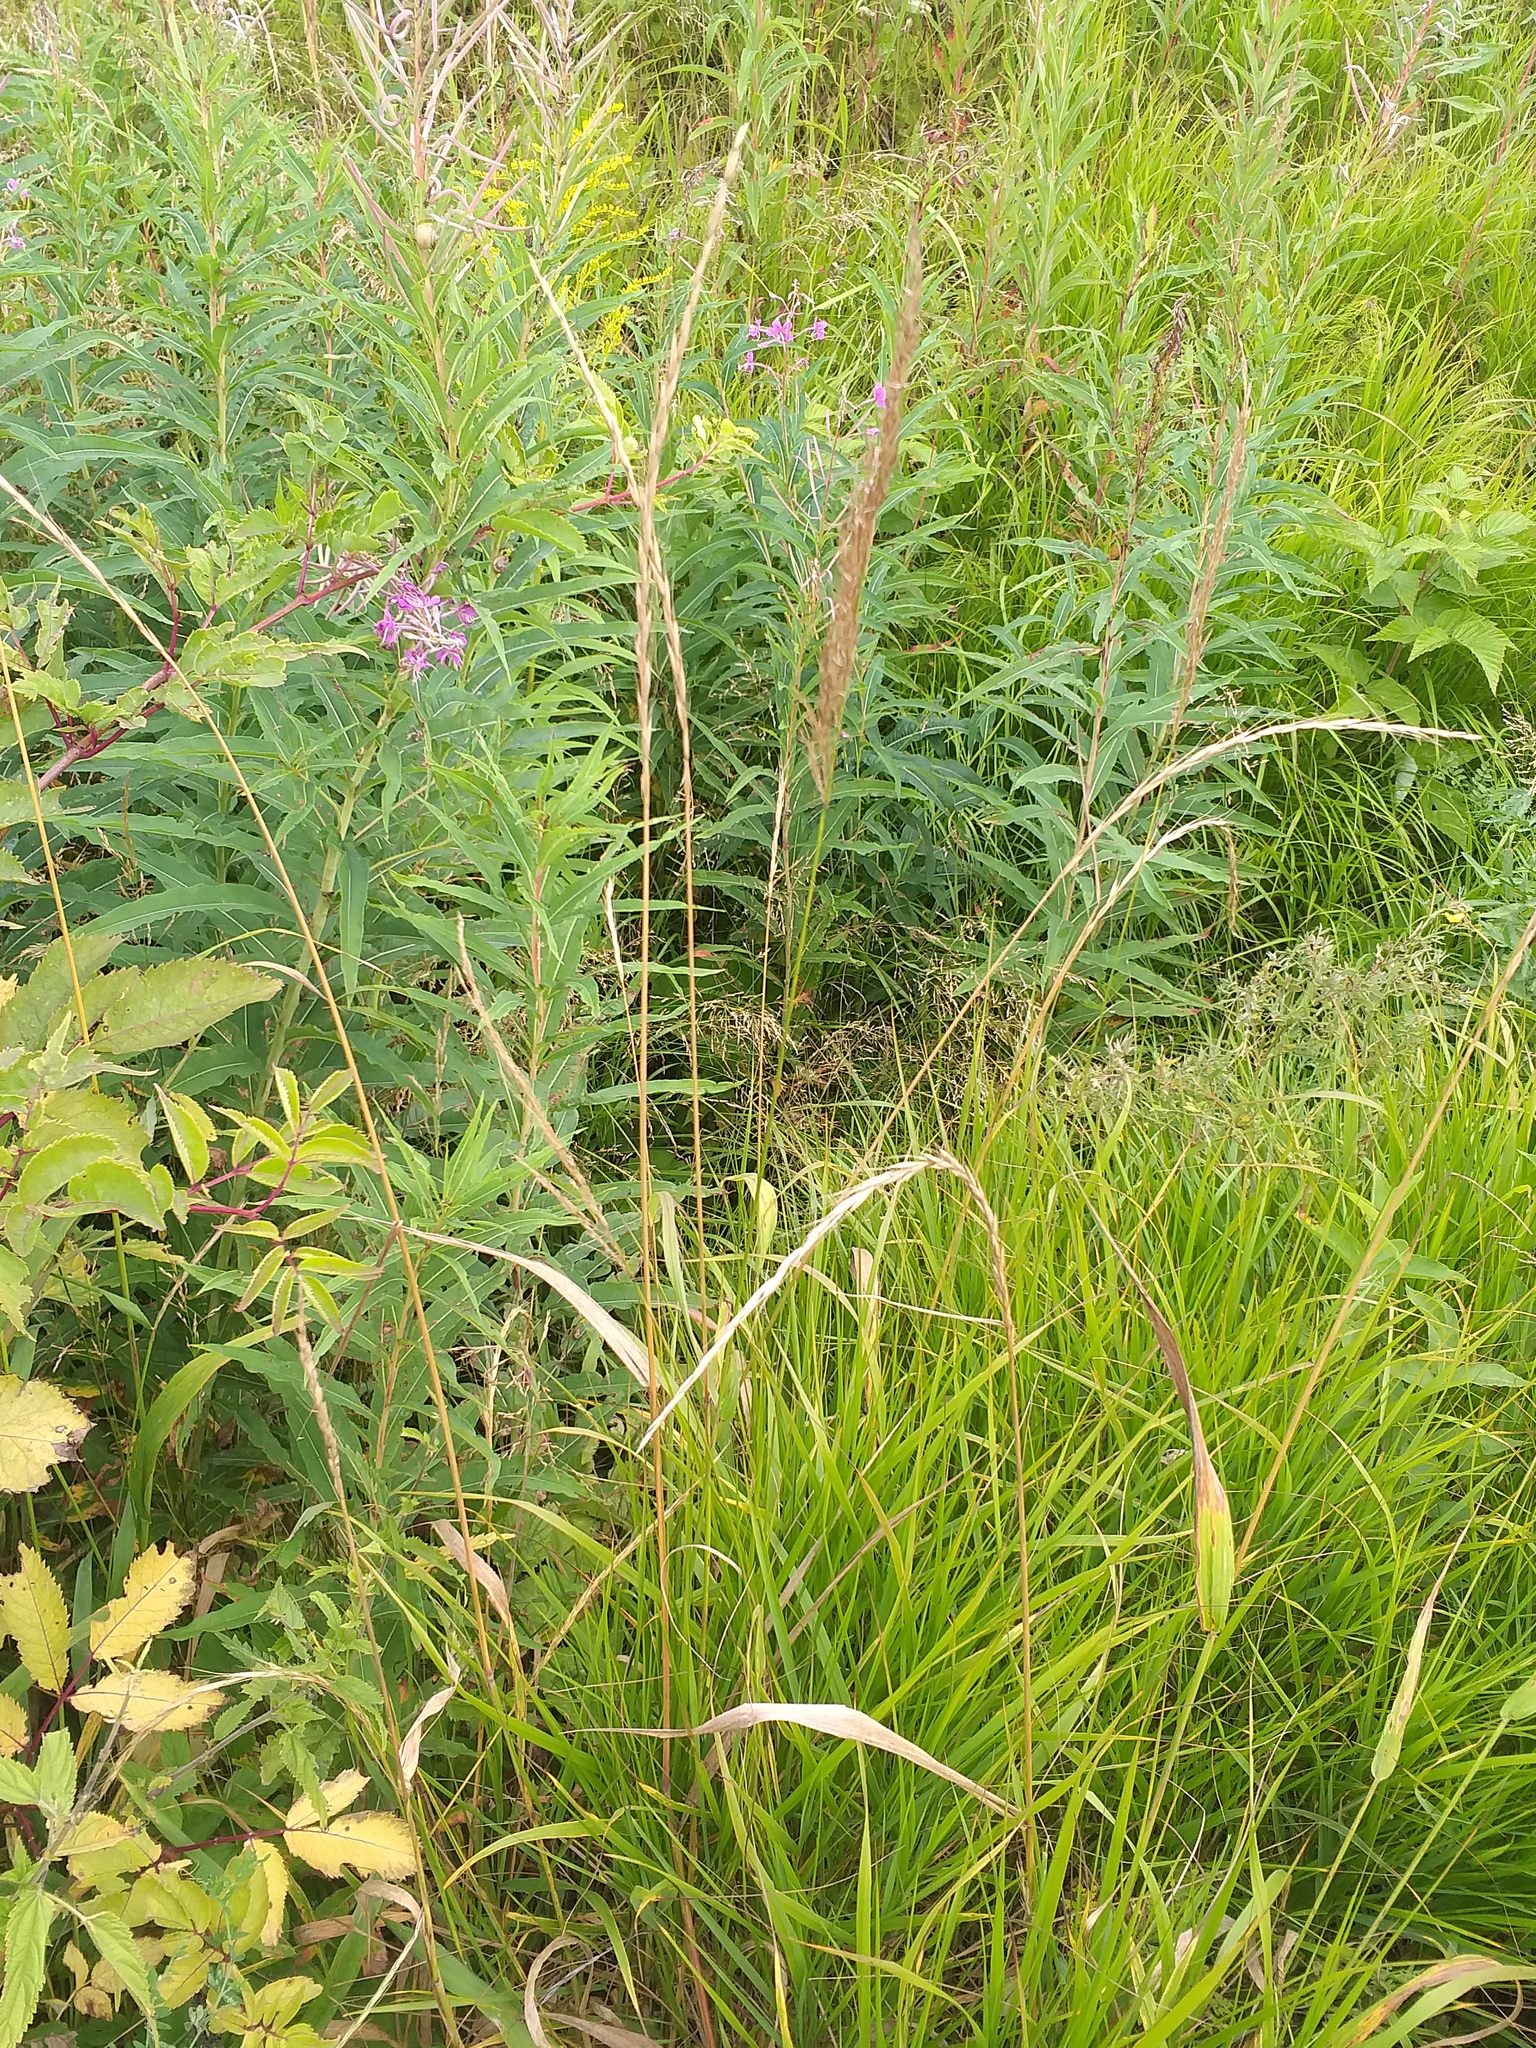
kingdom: Plantae
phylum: Tracheophyta
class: Liliopsida
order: Poales
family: Poaceae
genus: Elymus
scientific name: Elymus caninus
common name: Bearded couch
